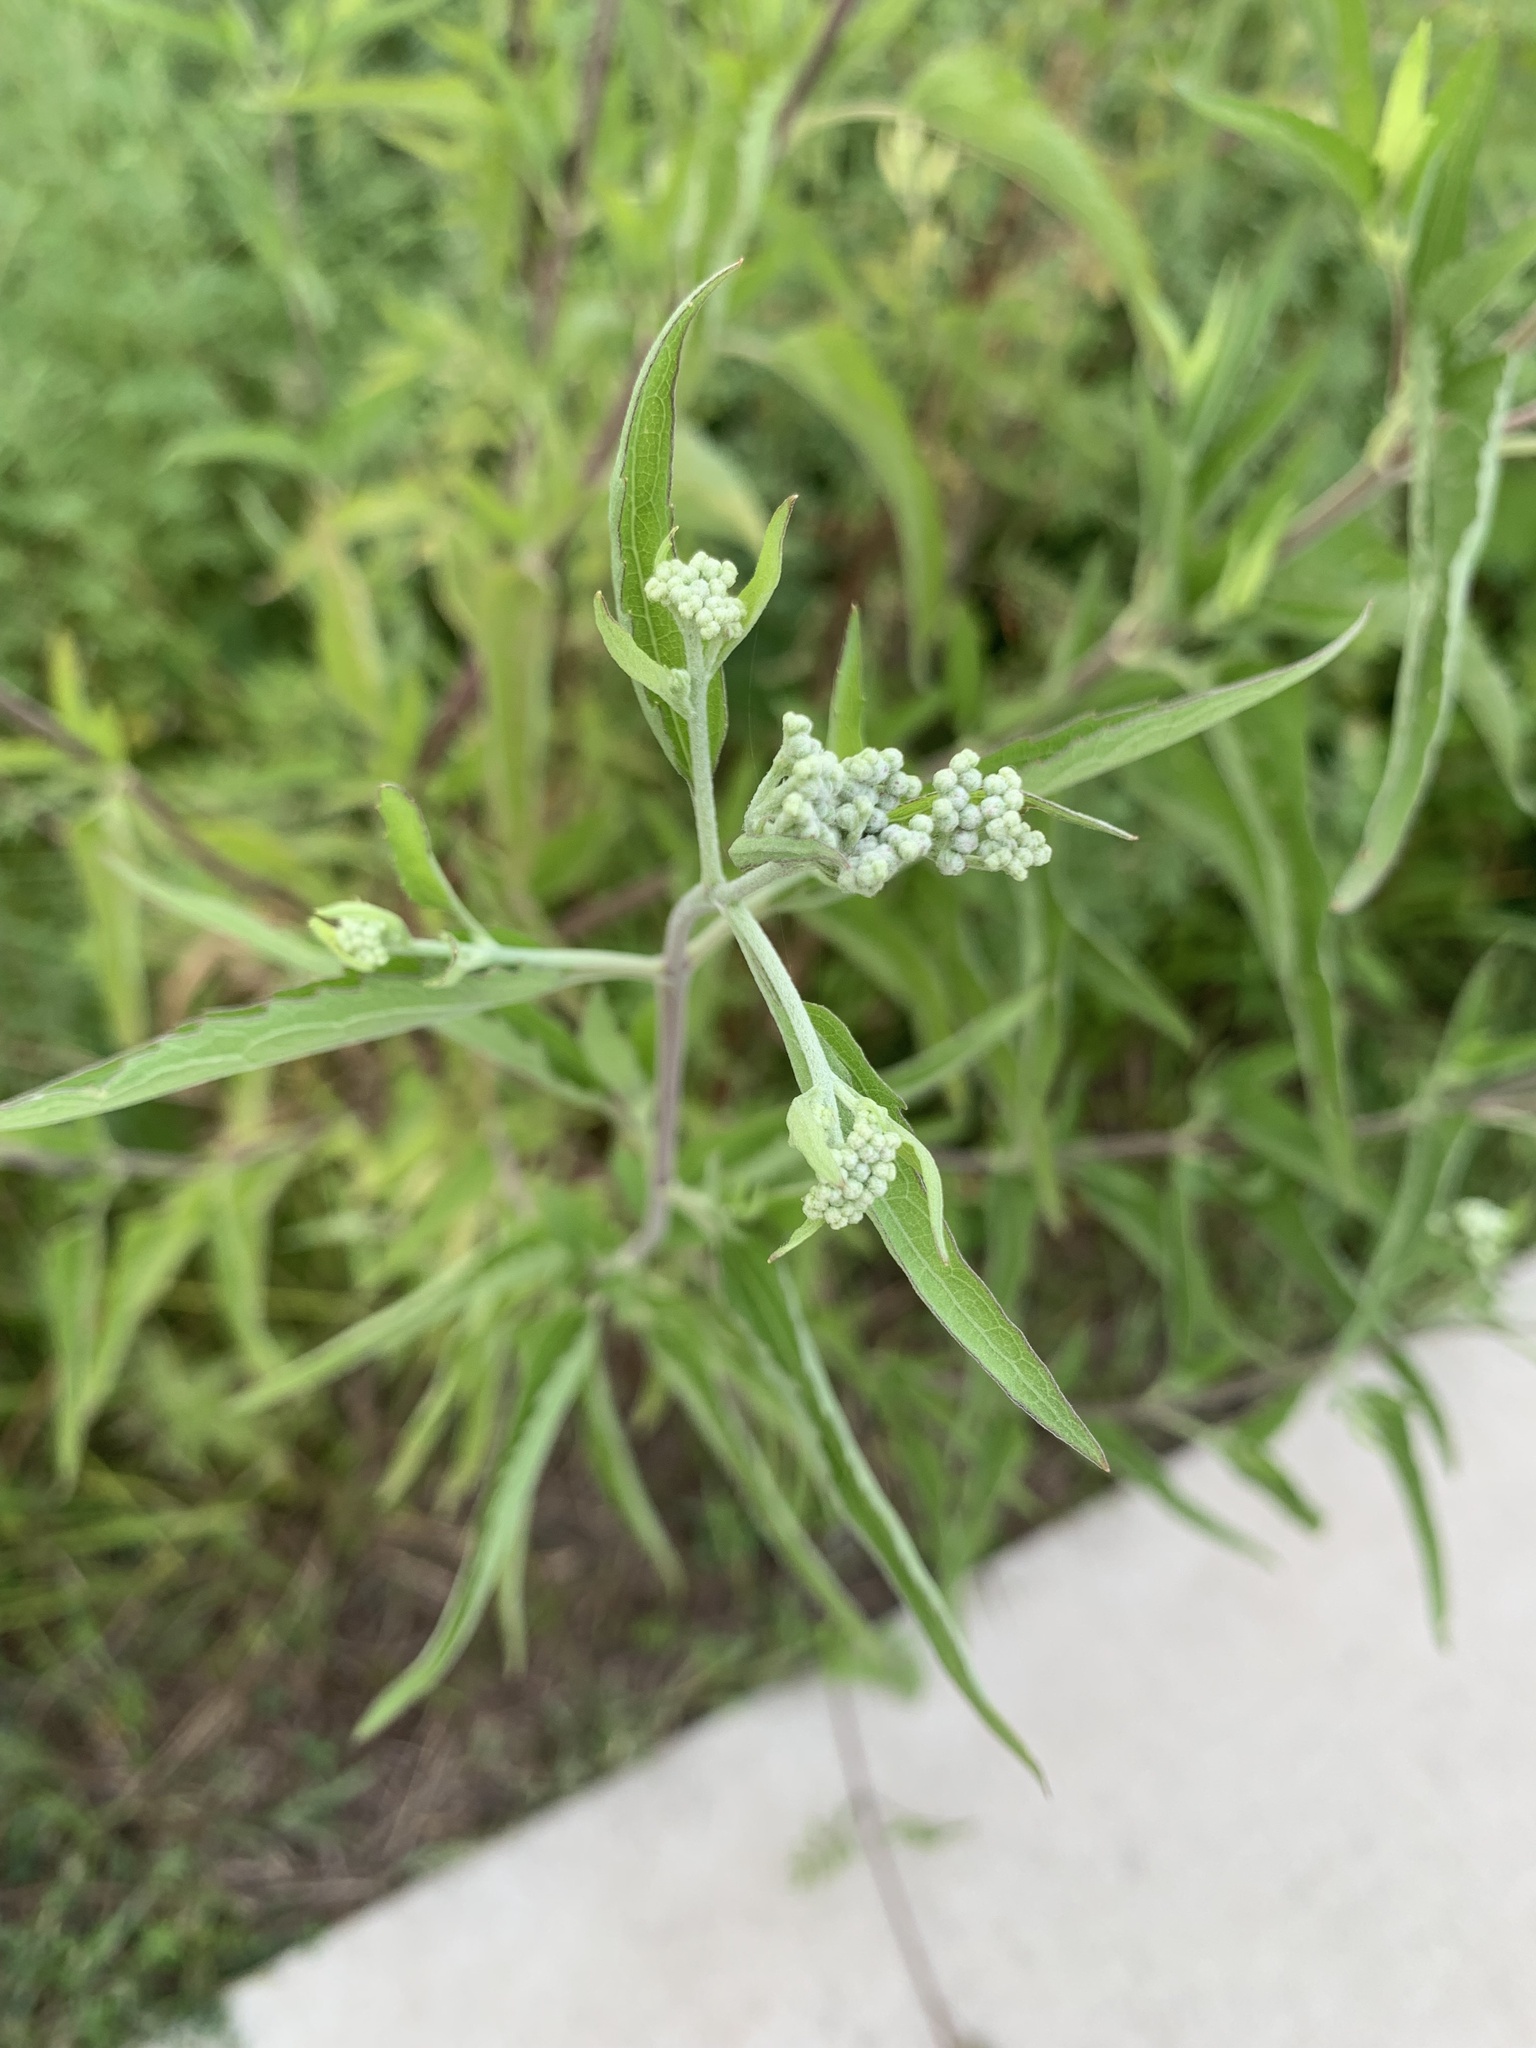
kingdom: Plantae
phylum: Tracheophyta
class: Magnoliopsida
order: Asterales
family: Asteraceae
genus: Eupatorium
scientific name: Eupatorium serotinum
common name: Late boneset
